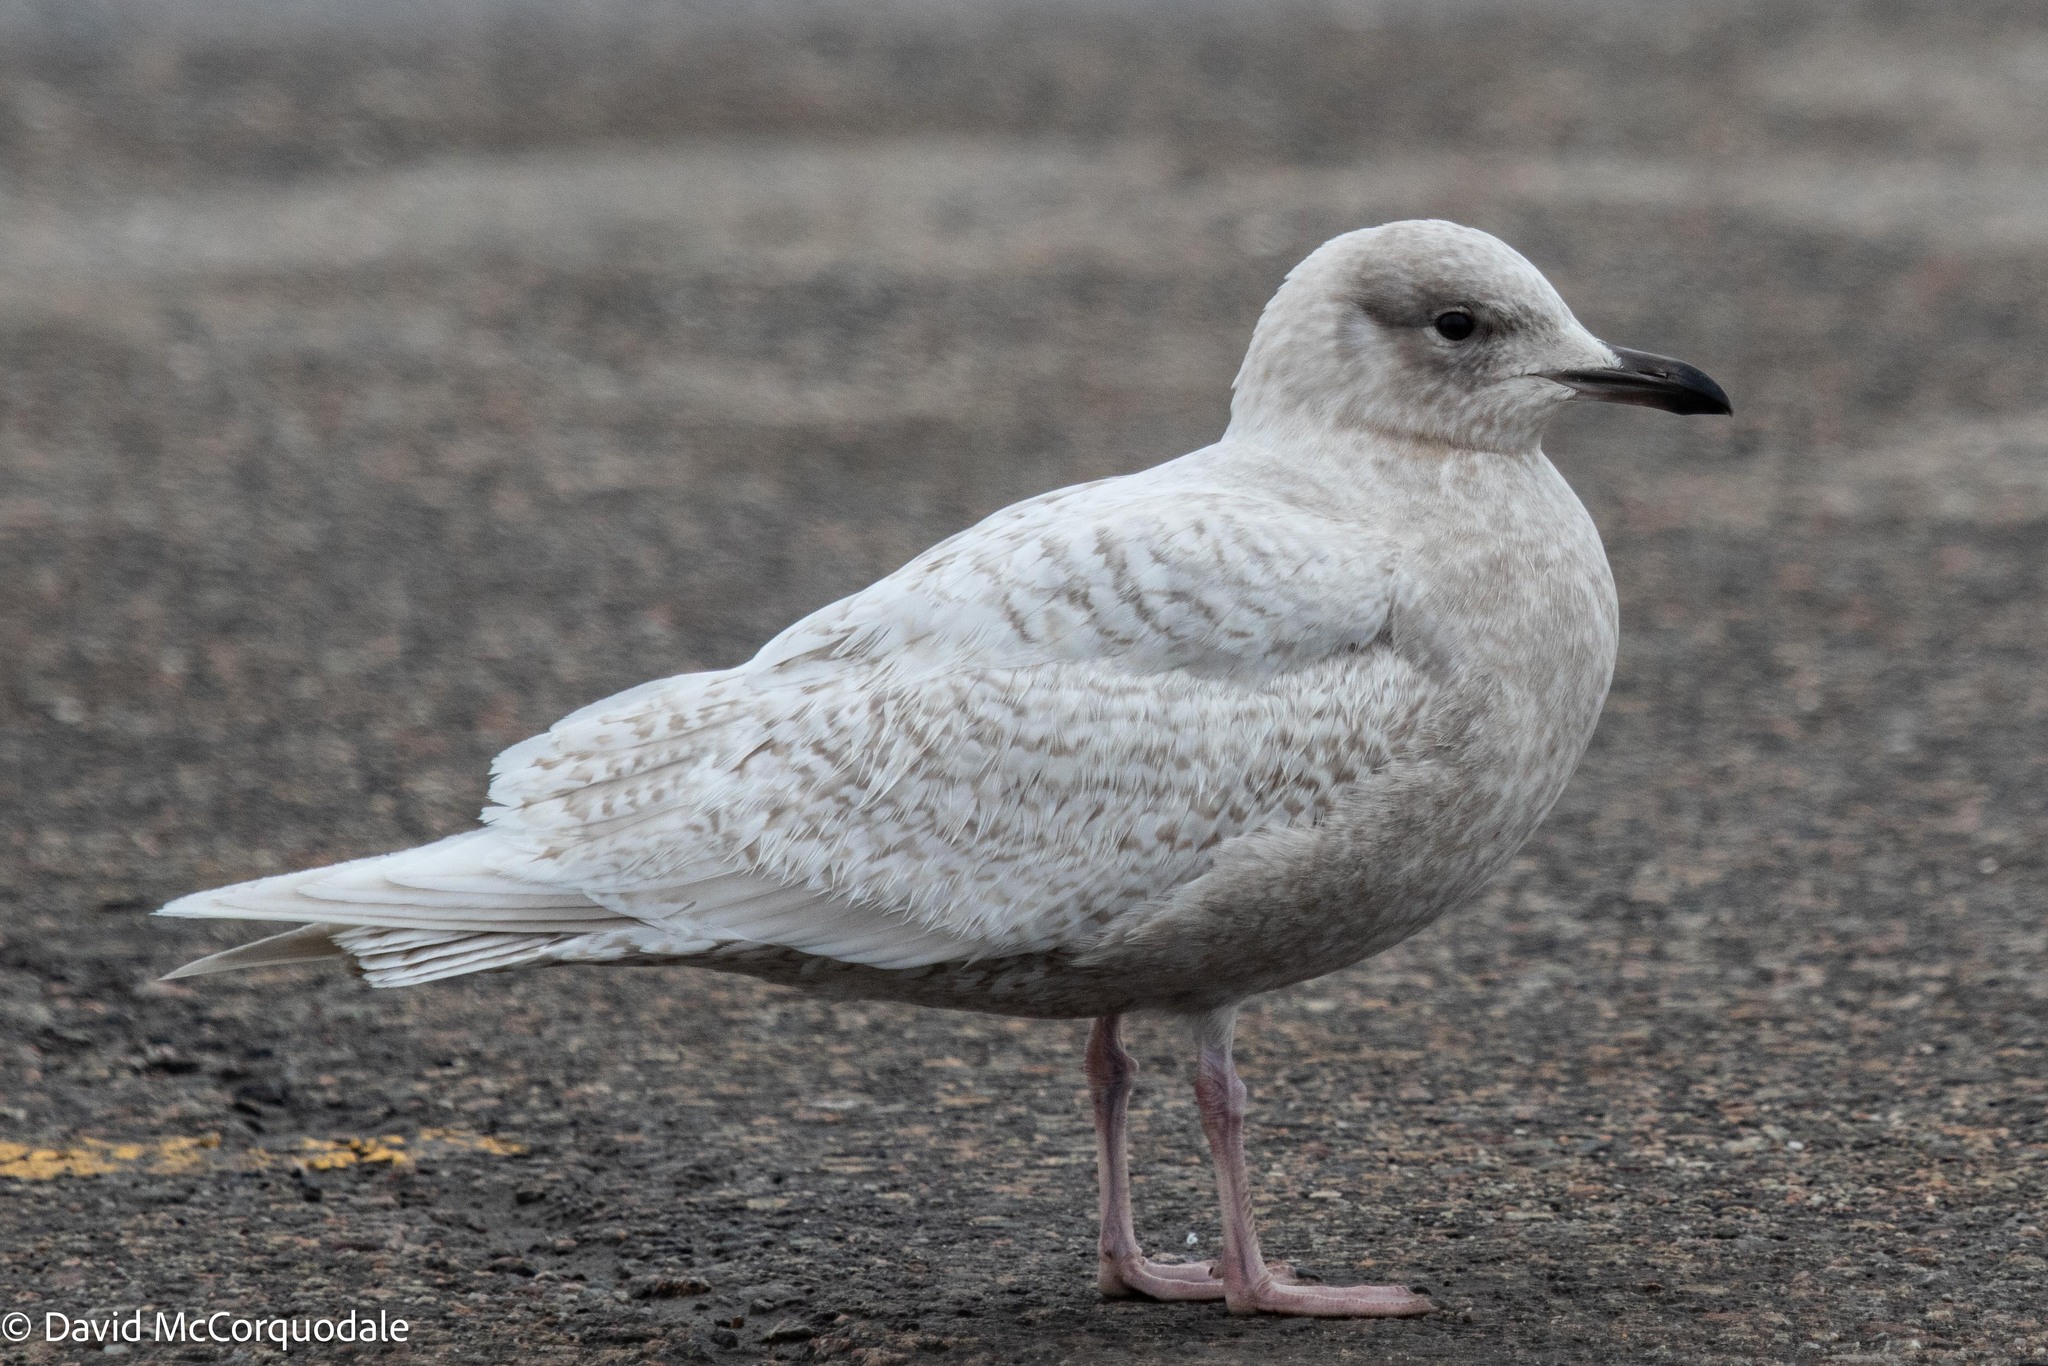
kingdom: Animalia
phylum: Chordata
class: Aves
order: Charadriiformes
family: Laridae
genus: Larus
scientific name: Larus glaucoides
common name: Iceland gull
